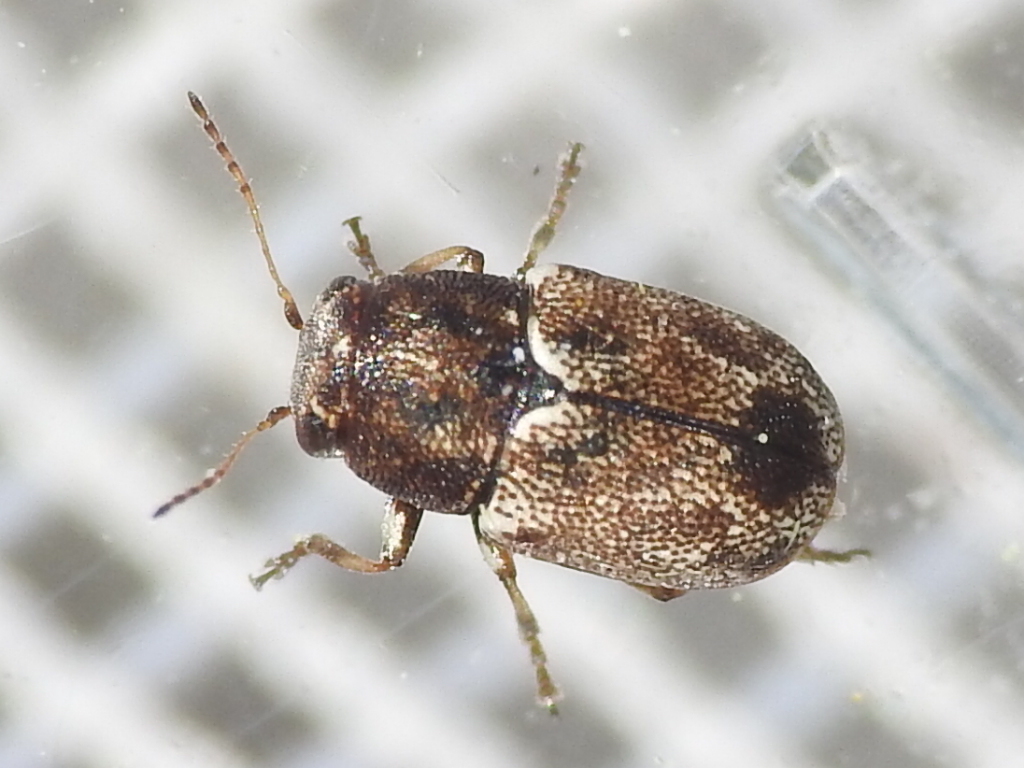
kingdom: Animalia
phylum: Arthropoda
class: Insecta
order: Coleoptera
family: Chrysomelidae
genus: Pachybrachis
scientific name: Pachybrachis hepaticus
